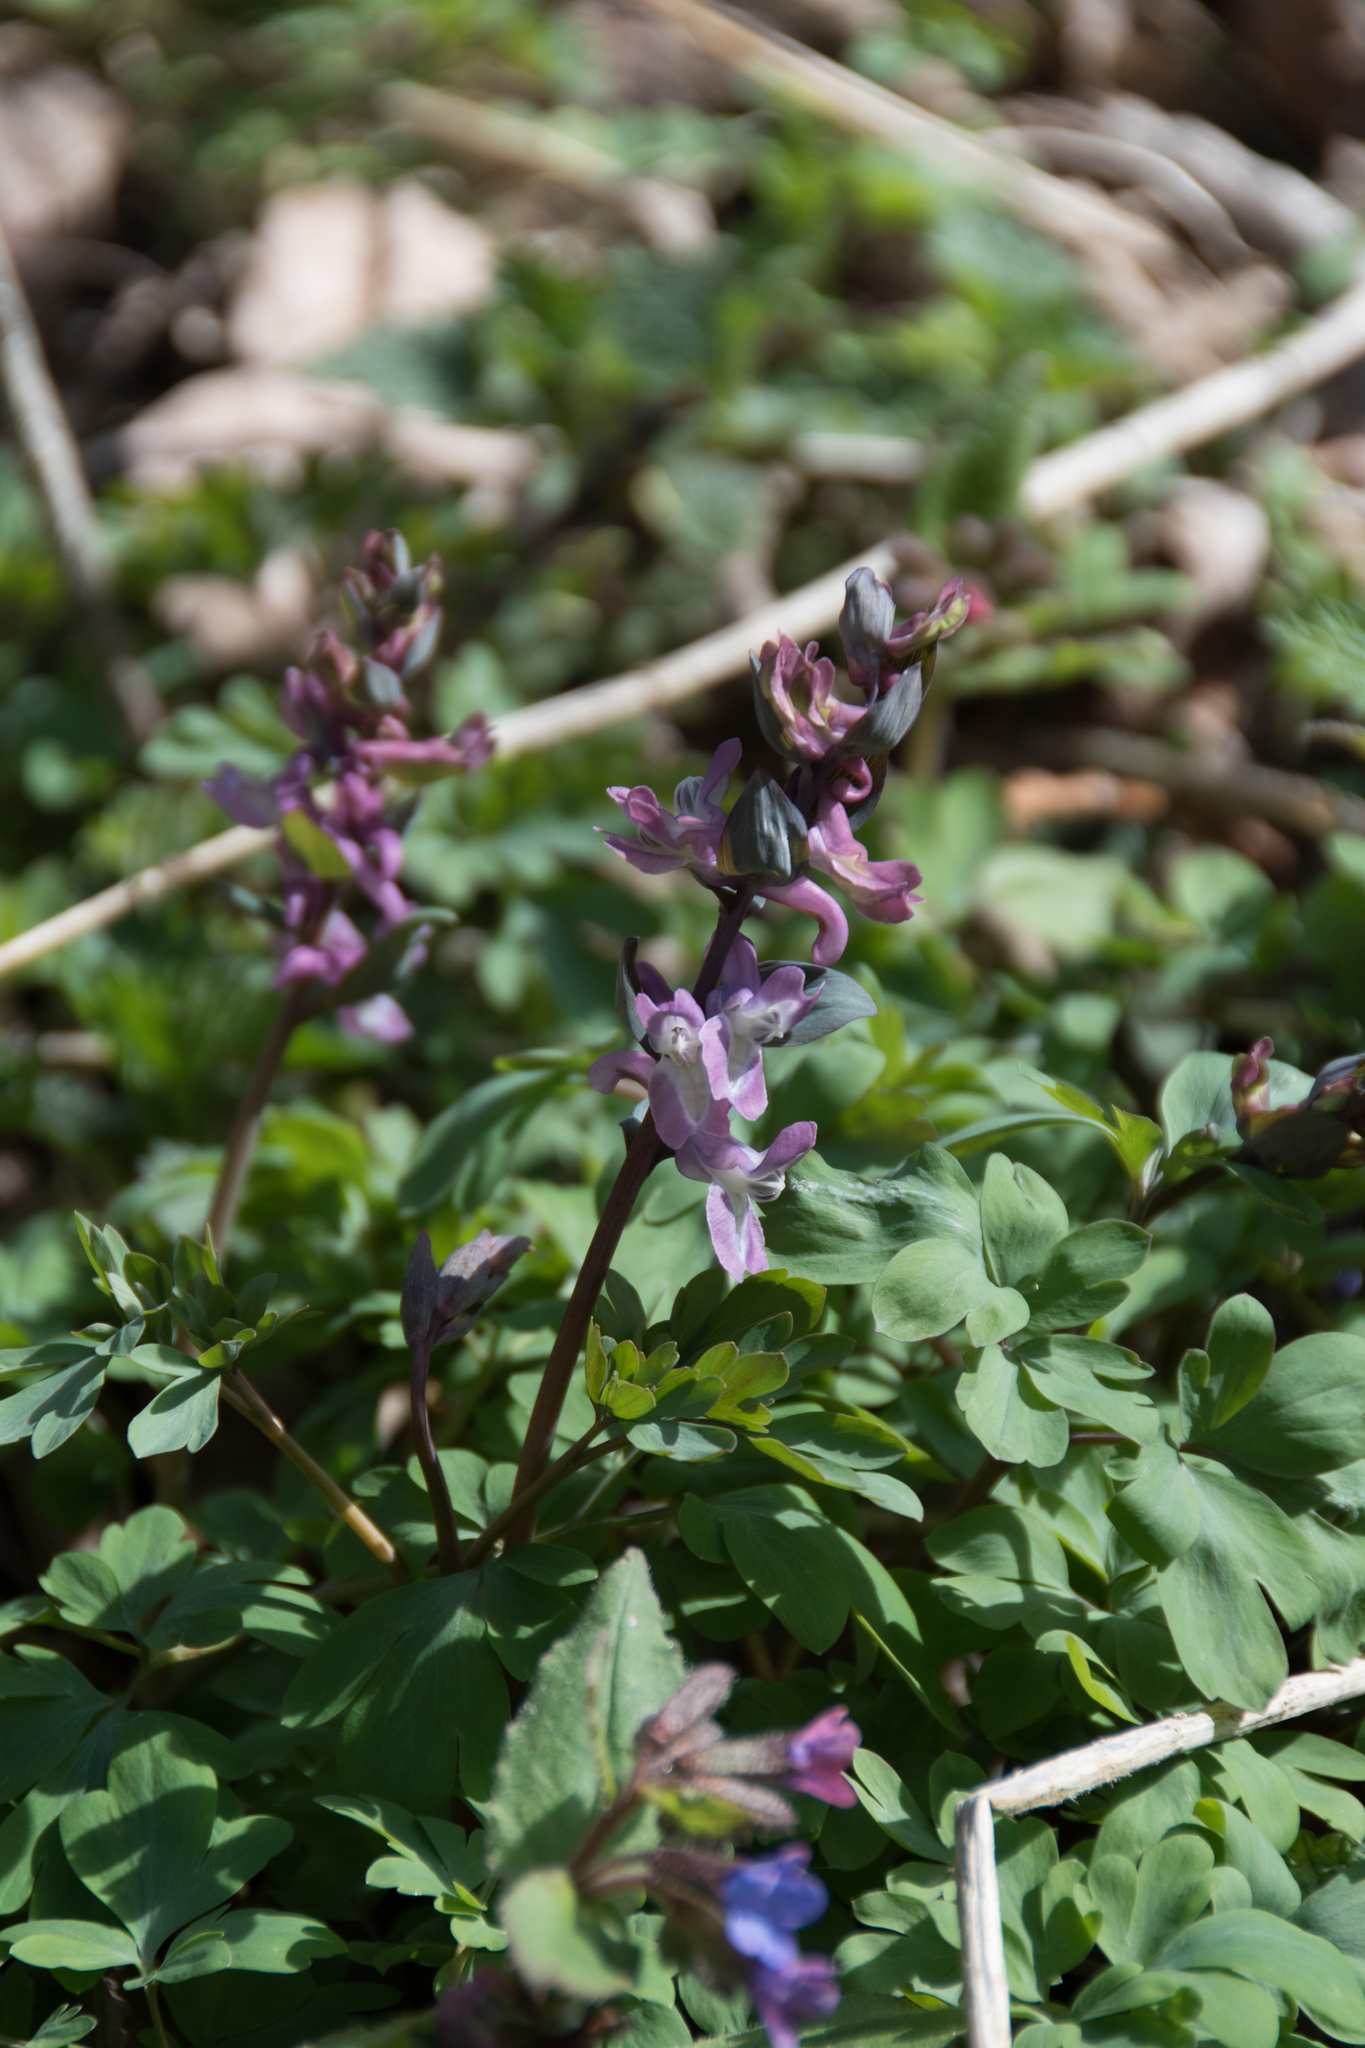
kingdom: Plantae
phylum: Tracheophyta
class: Magnoliopsida
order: Ranunculales
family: Papaveraceae
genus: Corydalis
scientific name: Corydalis cava
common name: Hollowroot
